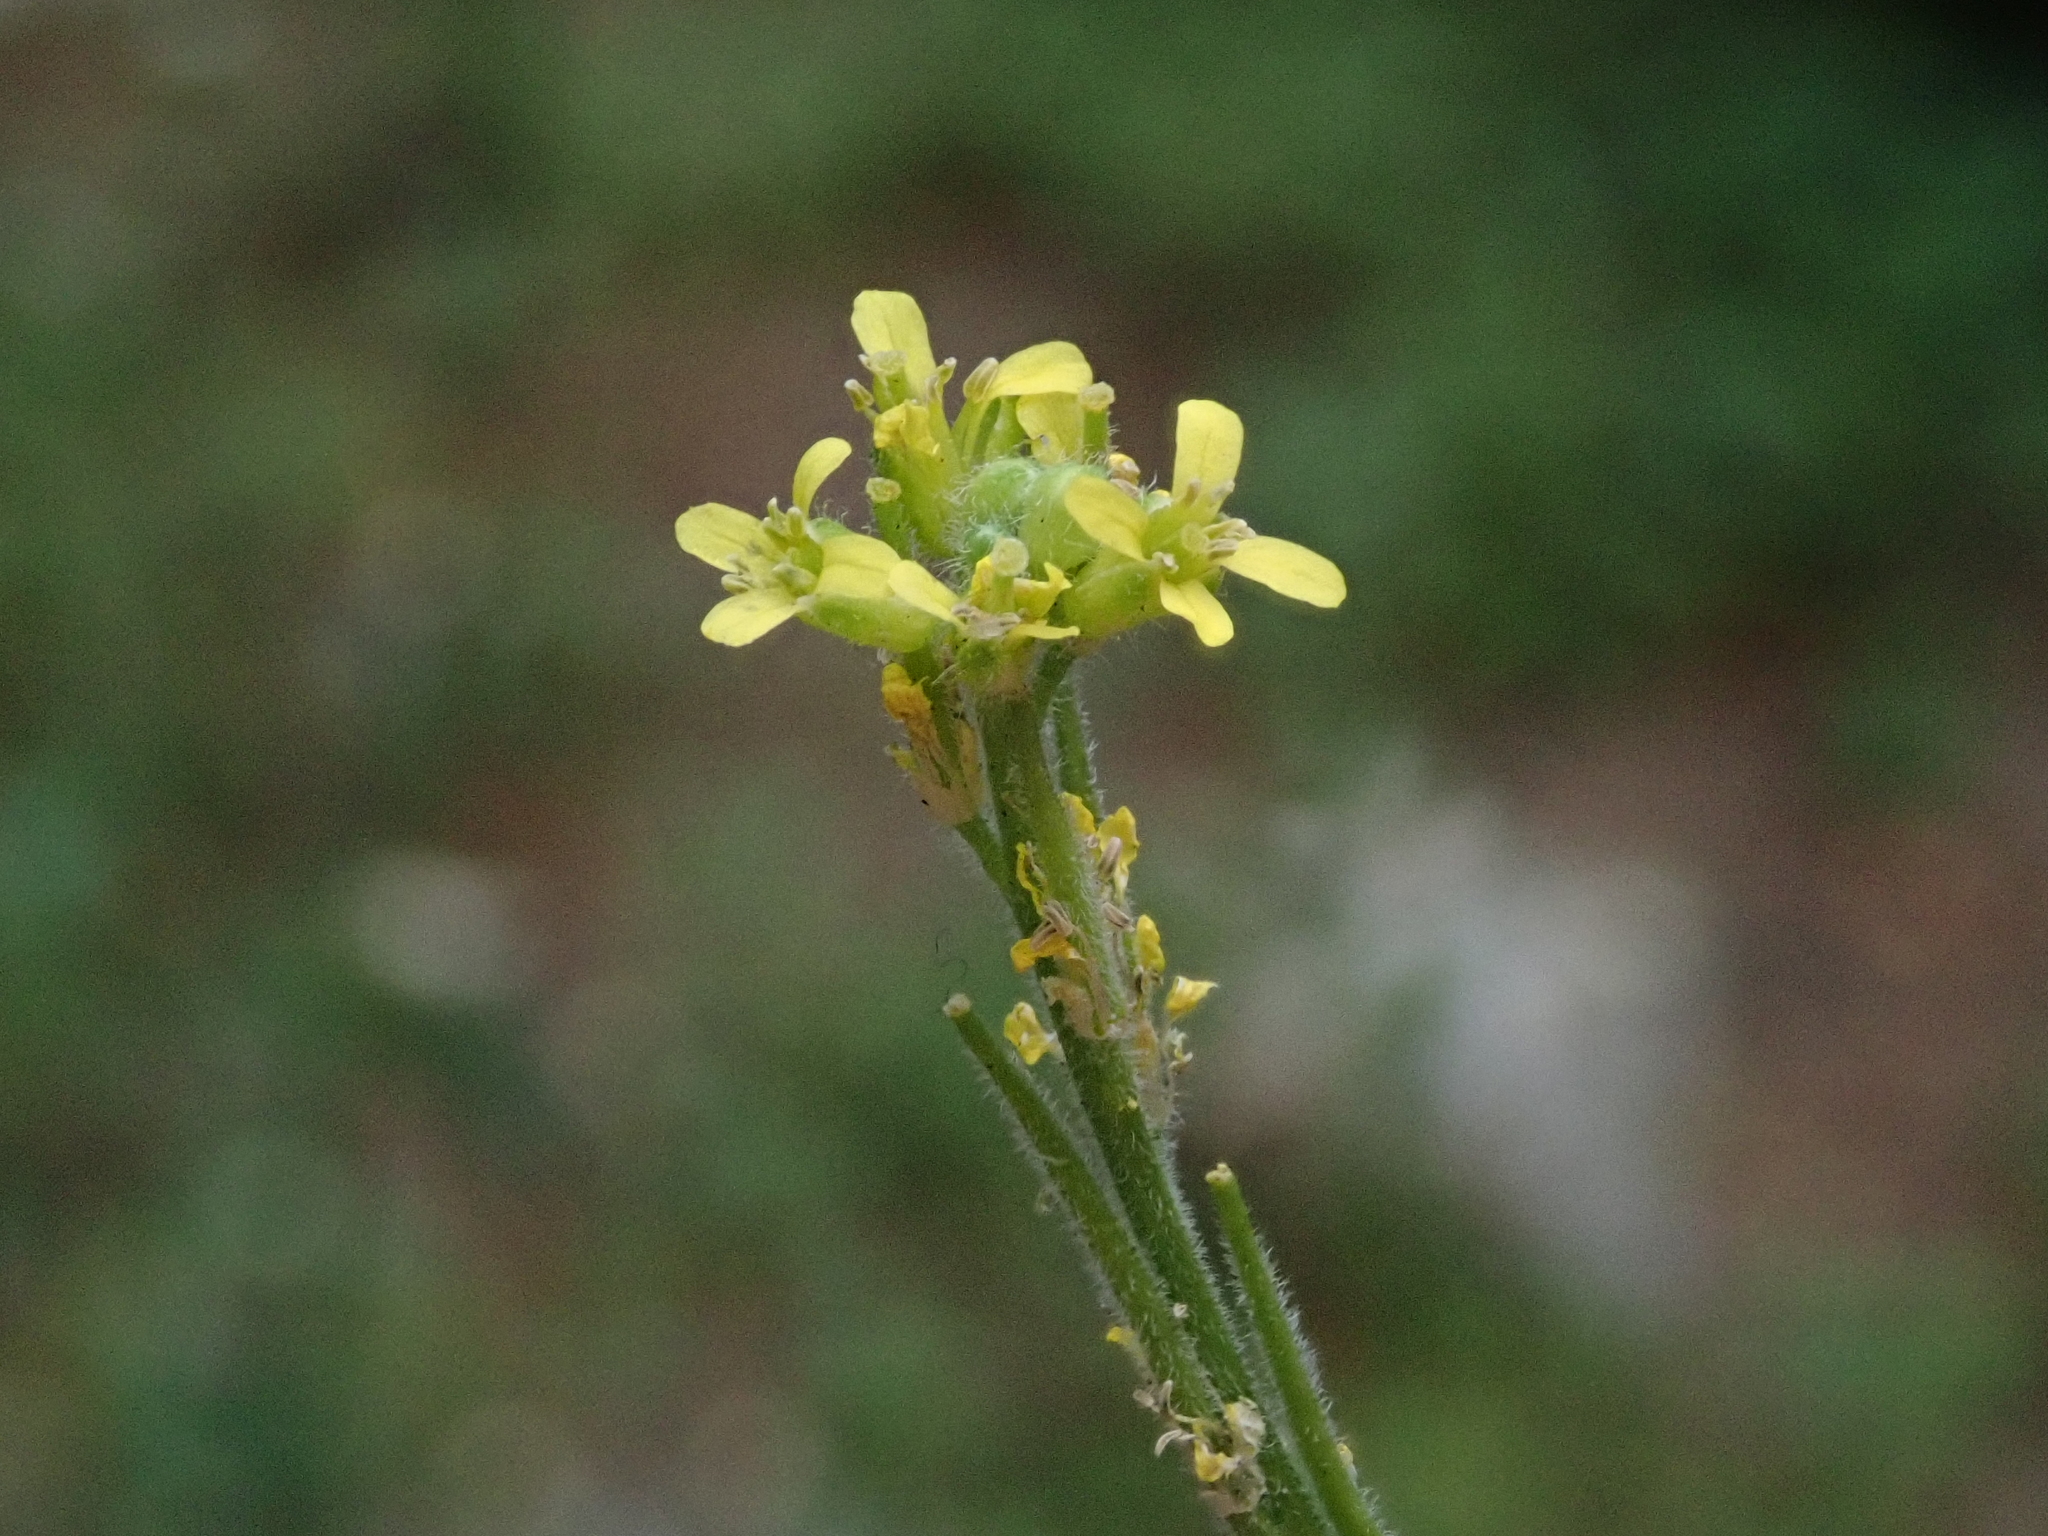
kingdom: Plantae
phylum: Tracheophyta
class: Magnoliopsida
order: Brassicales
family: Brassicaceae
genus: Sisymbrium
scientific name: Sisymbrium officinale
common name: Hedge mustard
